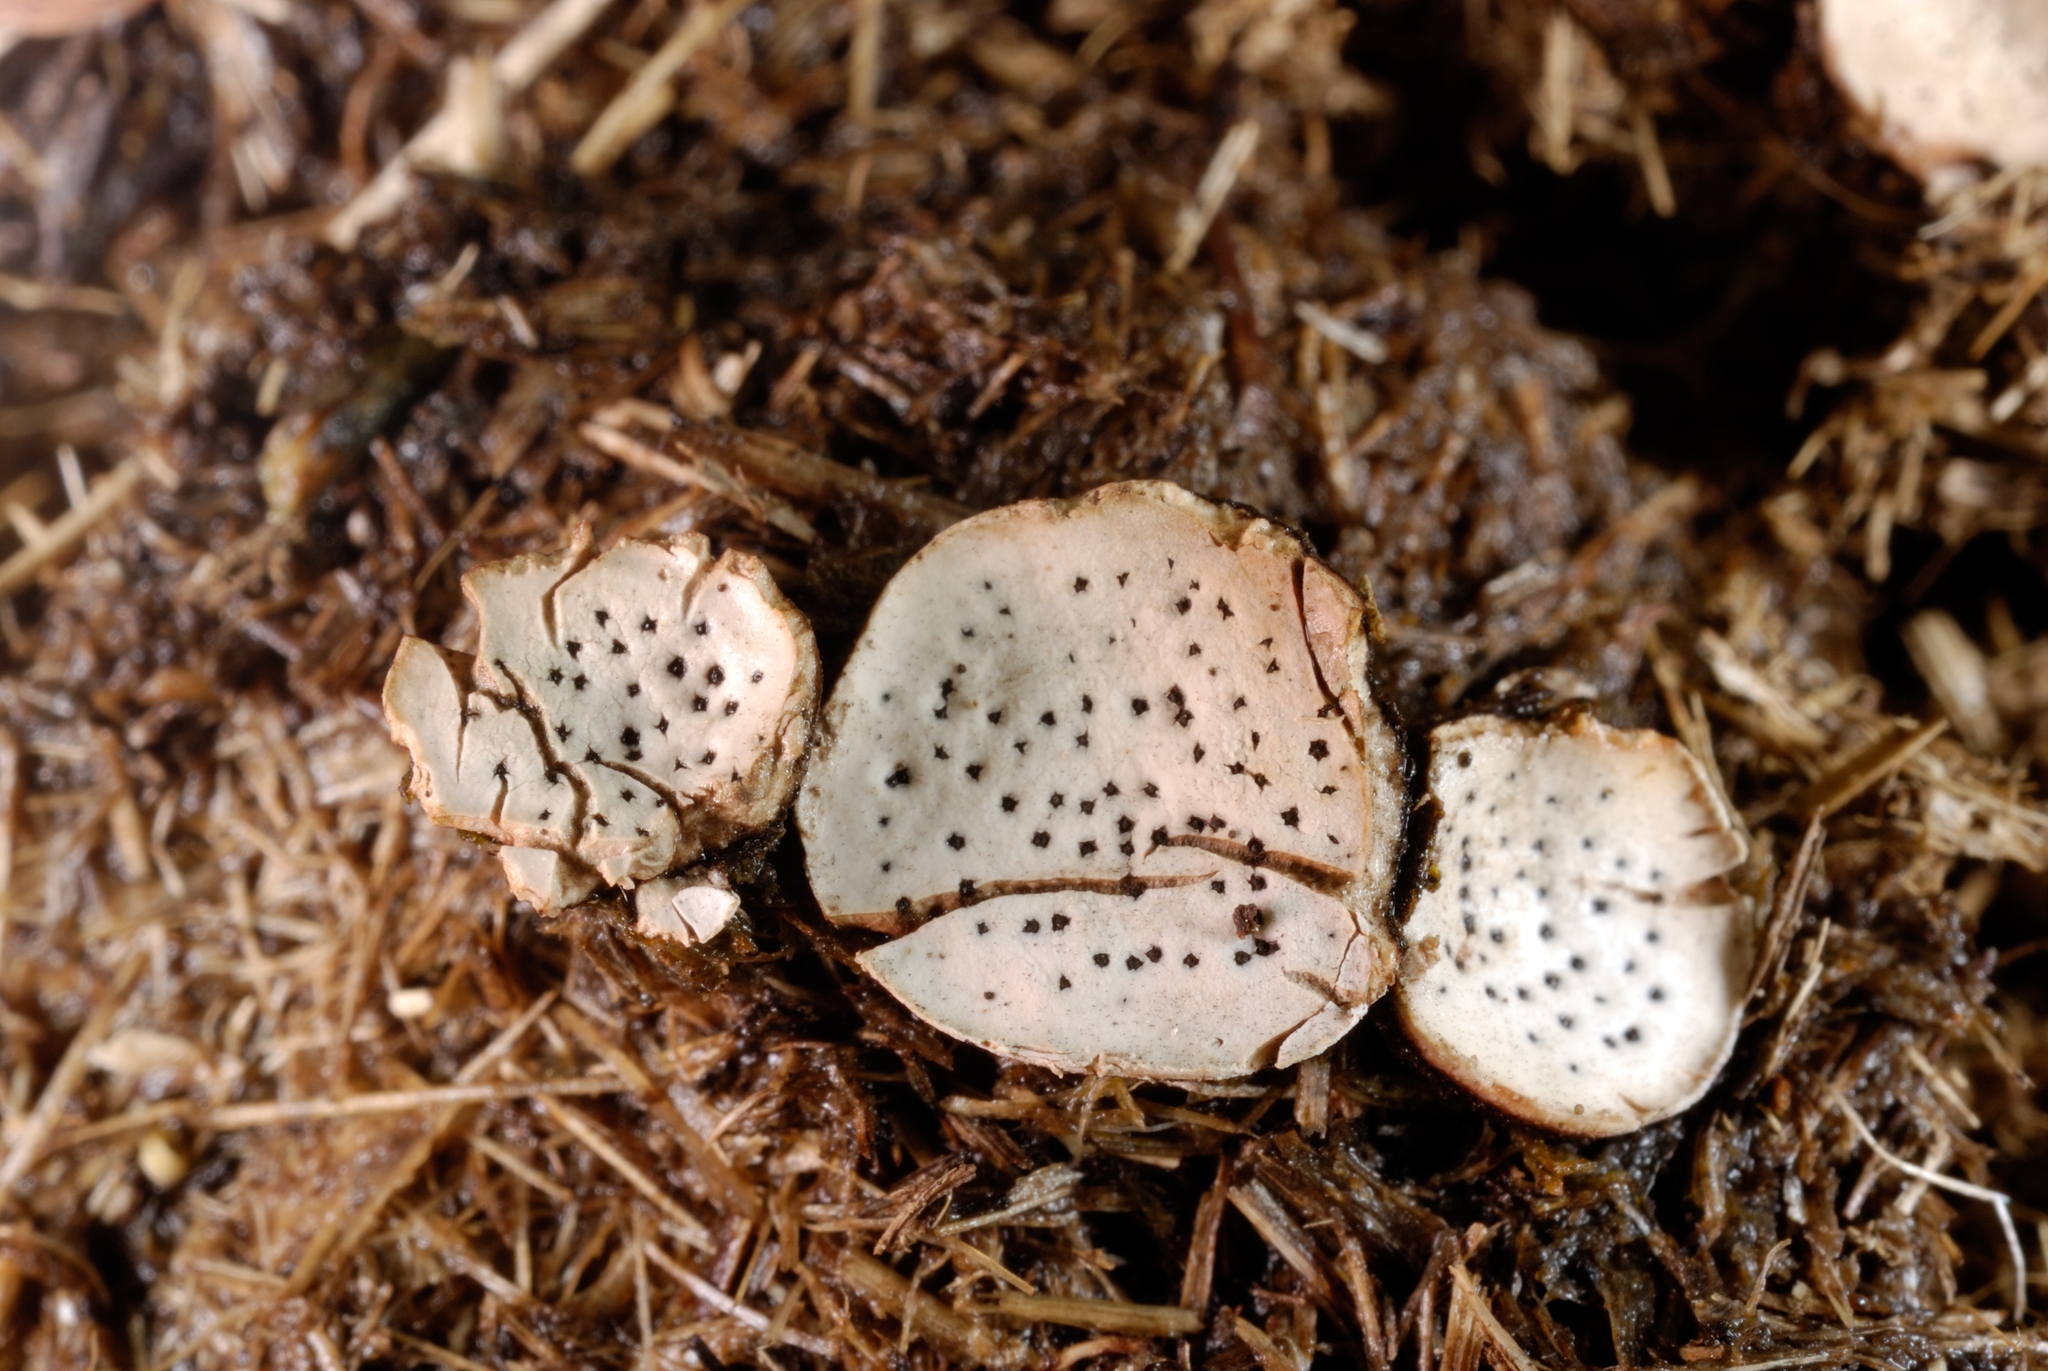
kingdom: Fungi
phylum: Ascomycota
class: Sordariomycetes
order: Xylariales
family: Xylariaceae
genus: Poronia
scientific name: Poronia punctata
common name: Nail fungus
